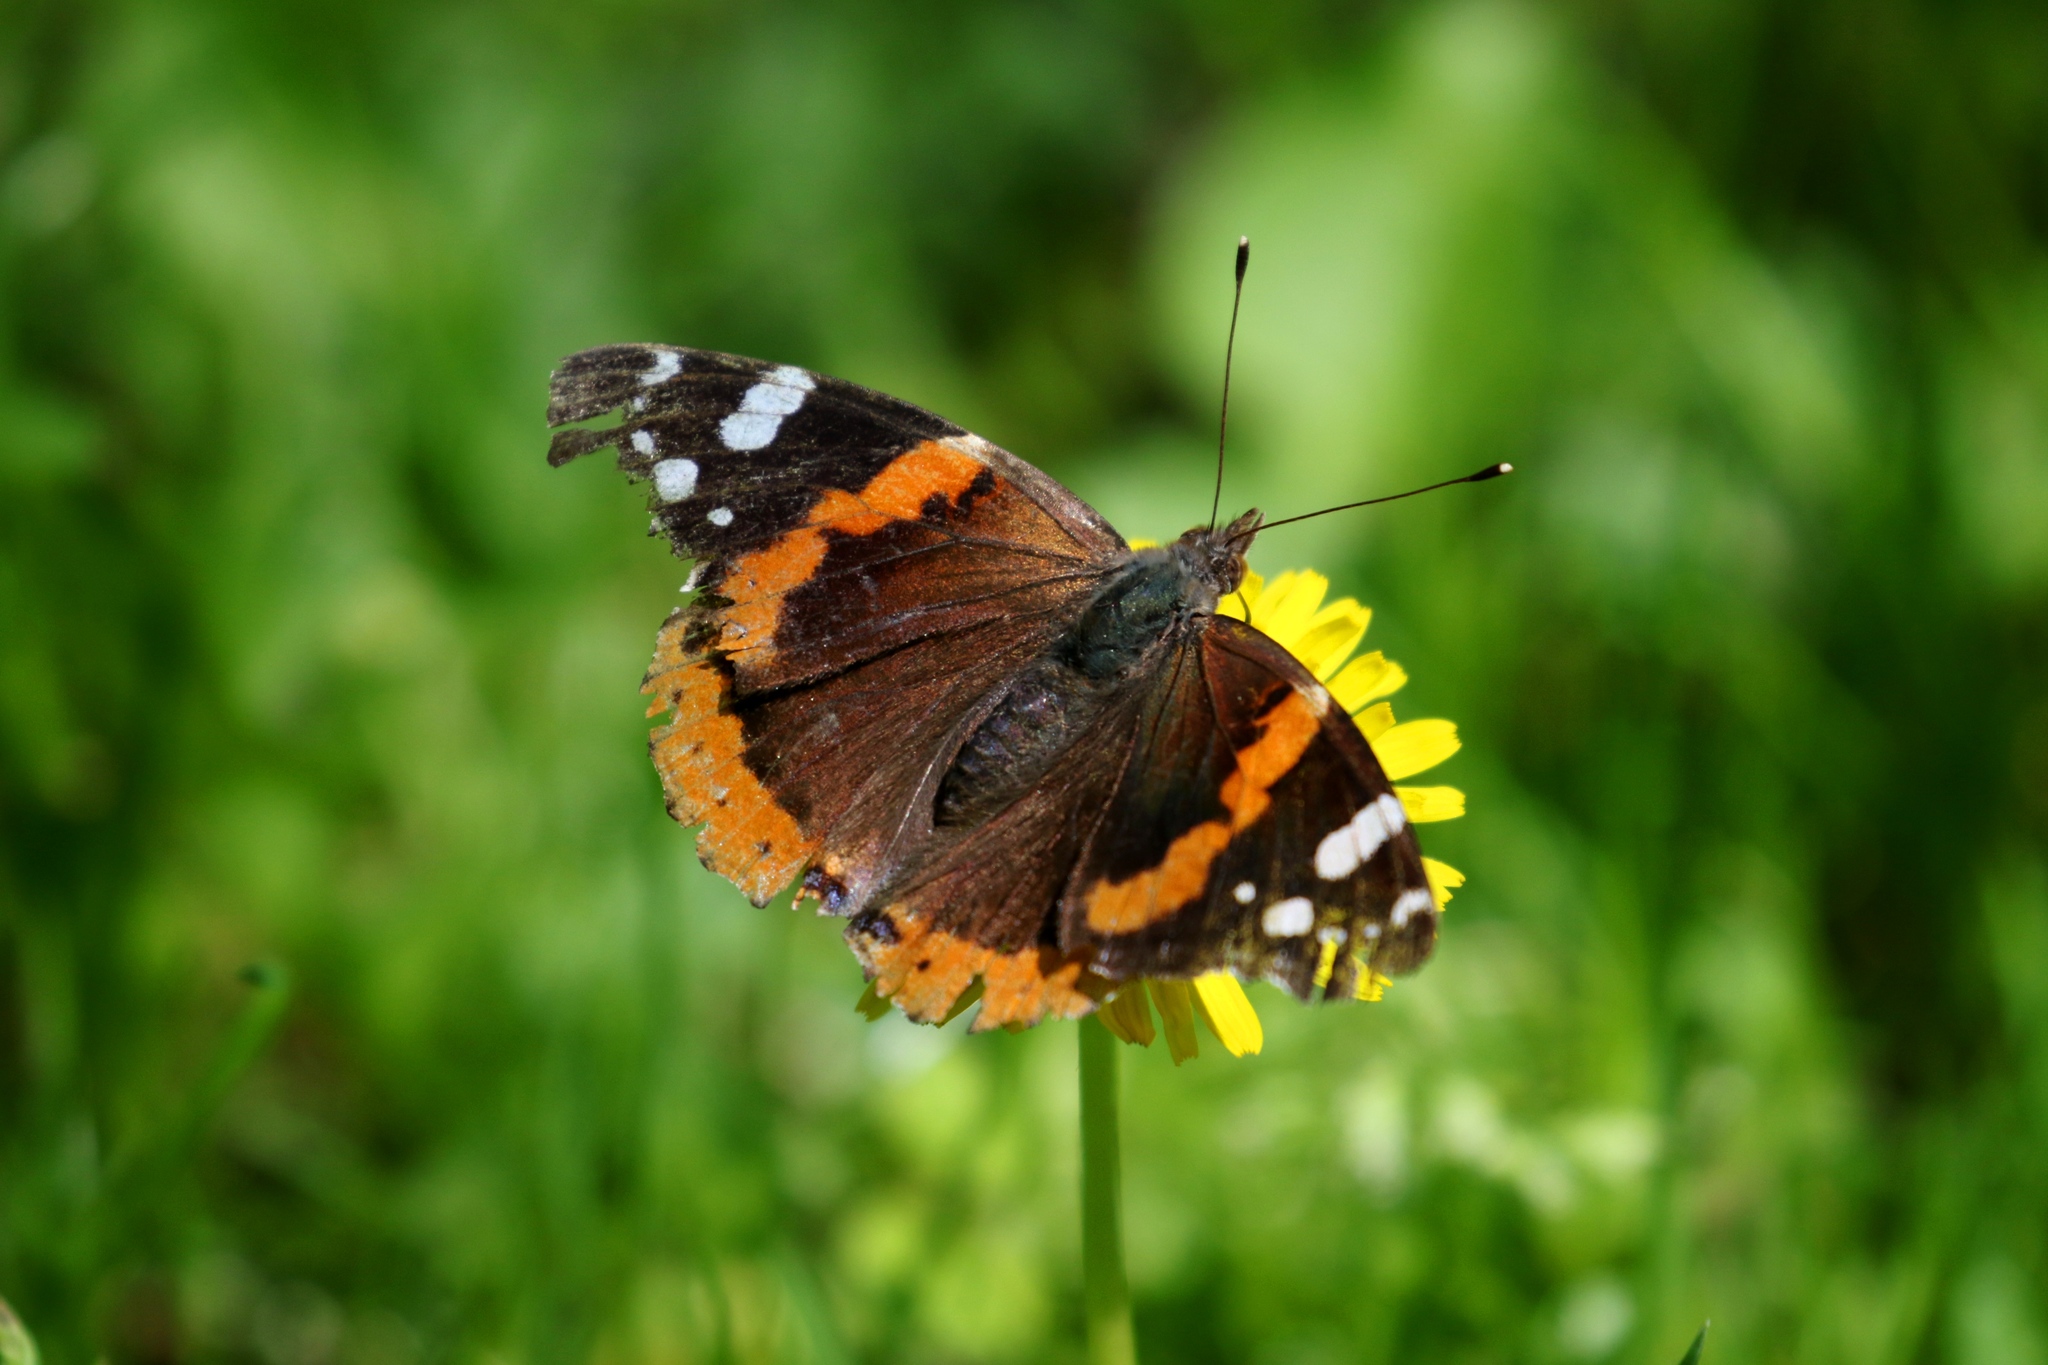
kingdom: Animalia
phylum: Arthropoda
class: Insecta
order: Lepidoptera
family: Nymphalidae
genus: Vanessa
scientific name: Vanessa atalanta
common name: Red admiral
